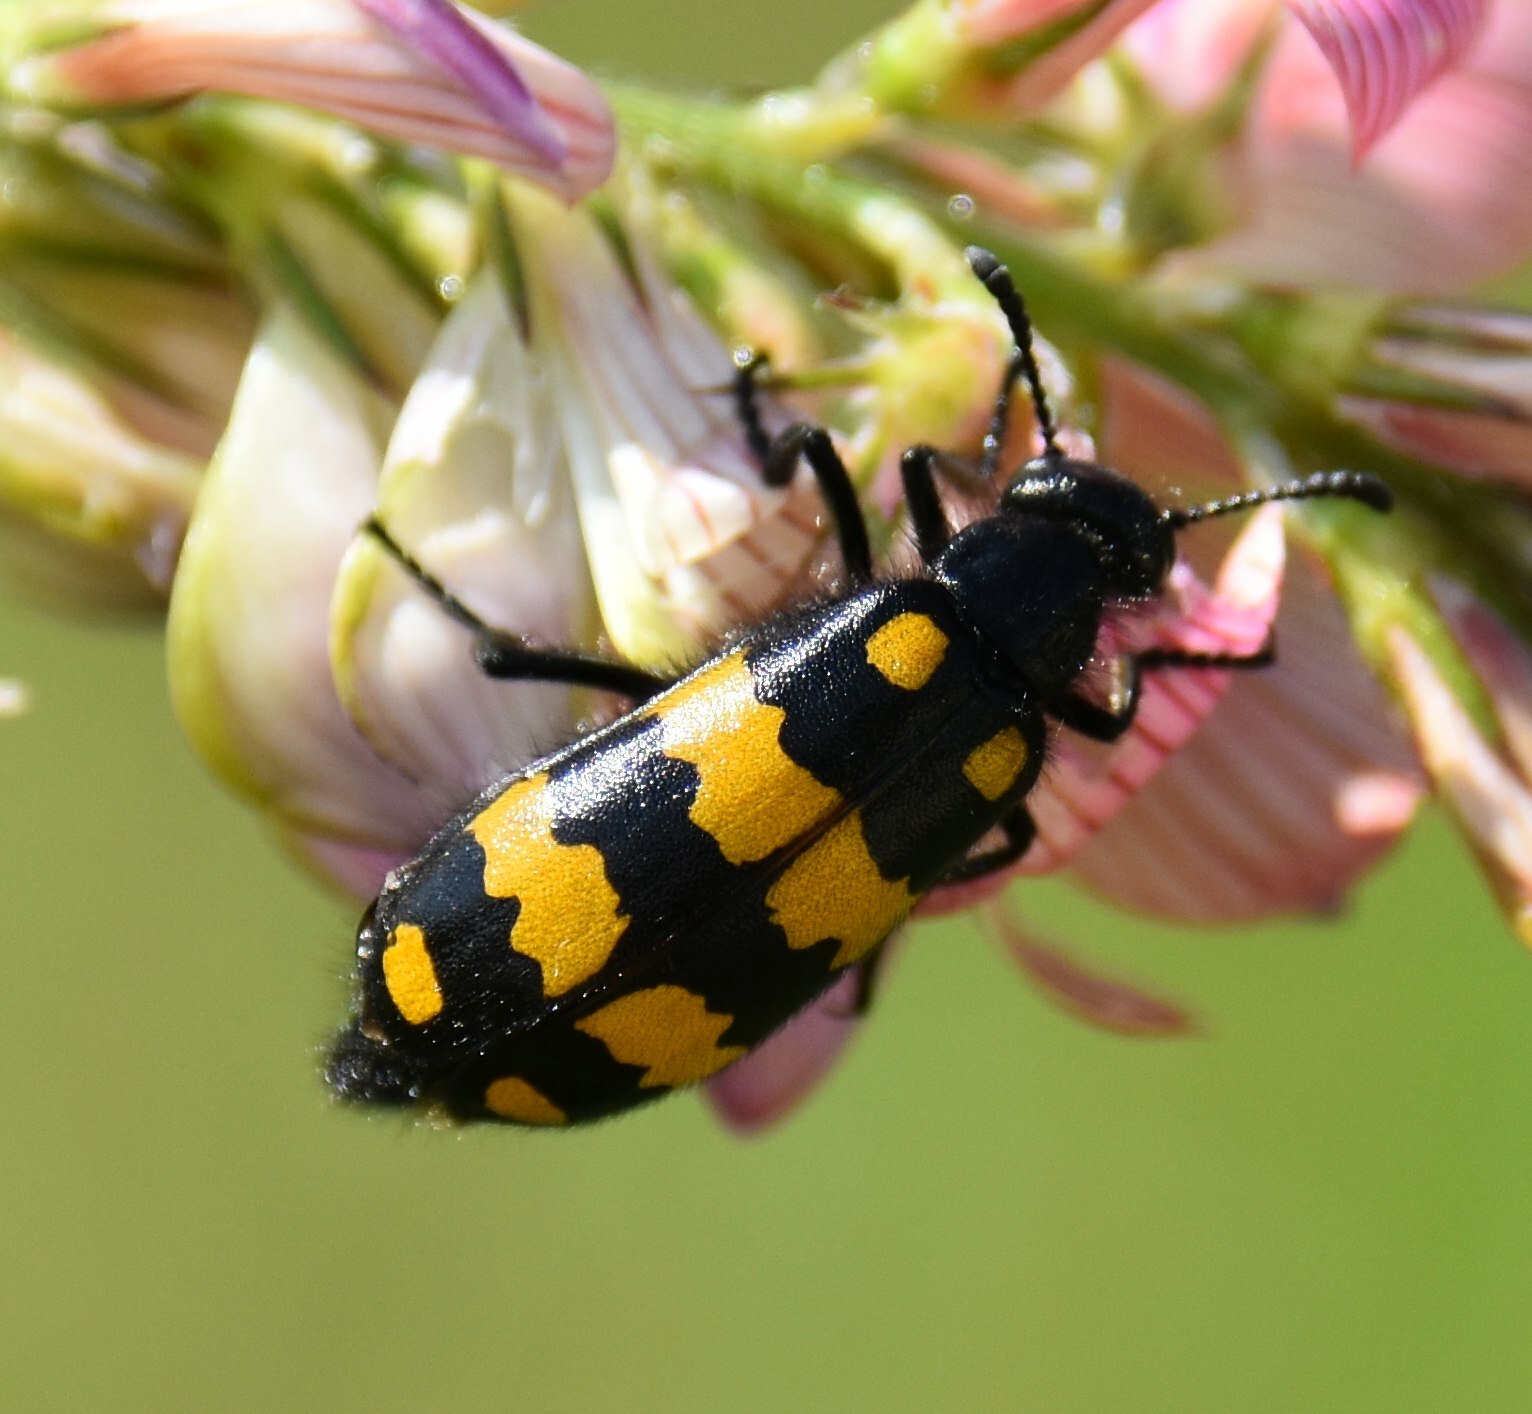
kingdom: Animalia
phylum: Arthropoda
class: Insecta
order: Coleoptera
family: Meloidae
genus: Mylabris
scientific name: Mylabris variabilis
